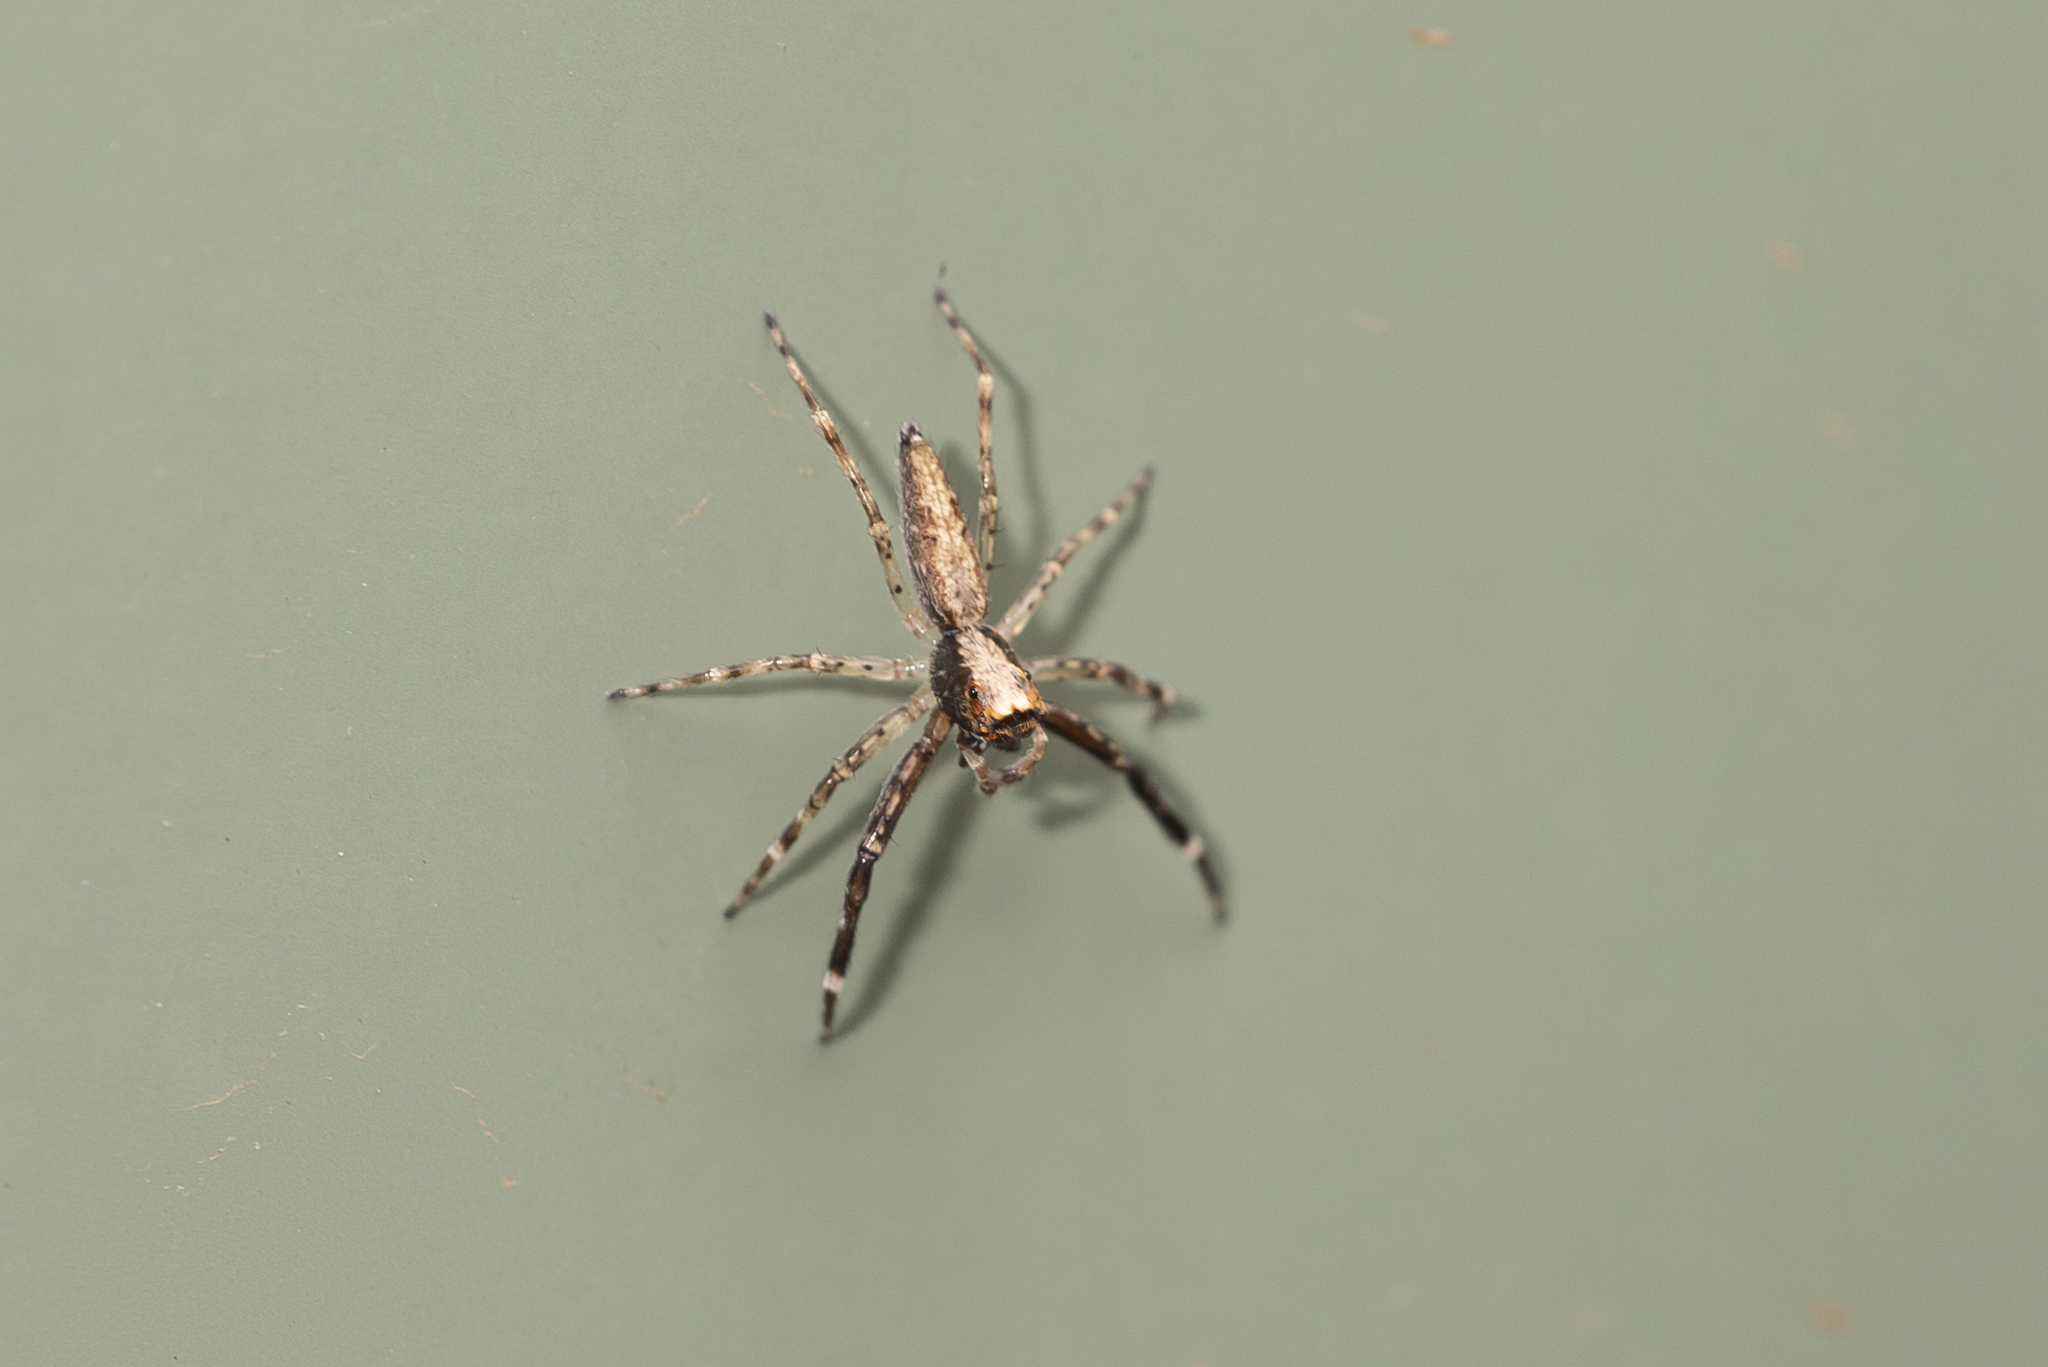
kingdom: Animalia
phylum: Arthropoda
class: Arachnida
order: Araneae
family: Salticidae
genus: Helpis
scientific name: Helpis minitabunda
